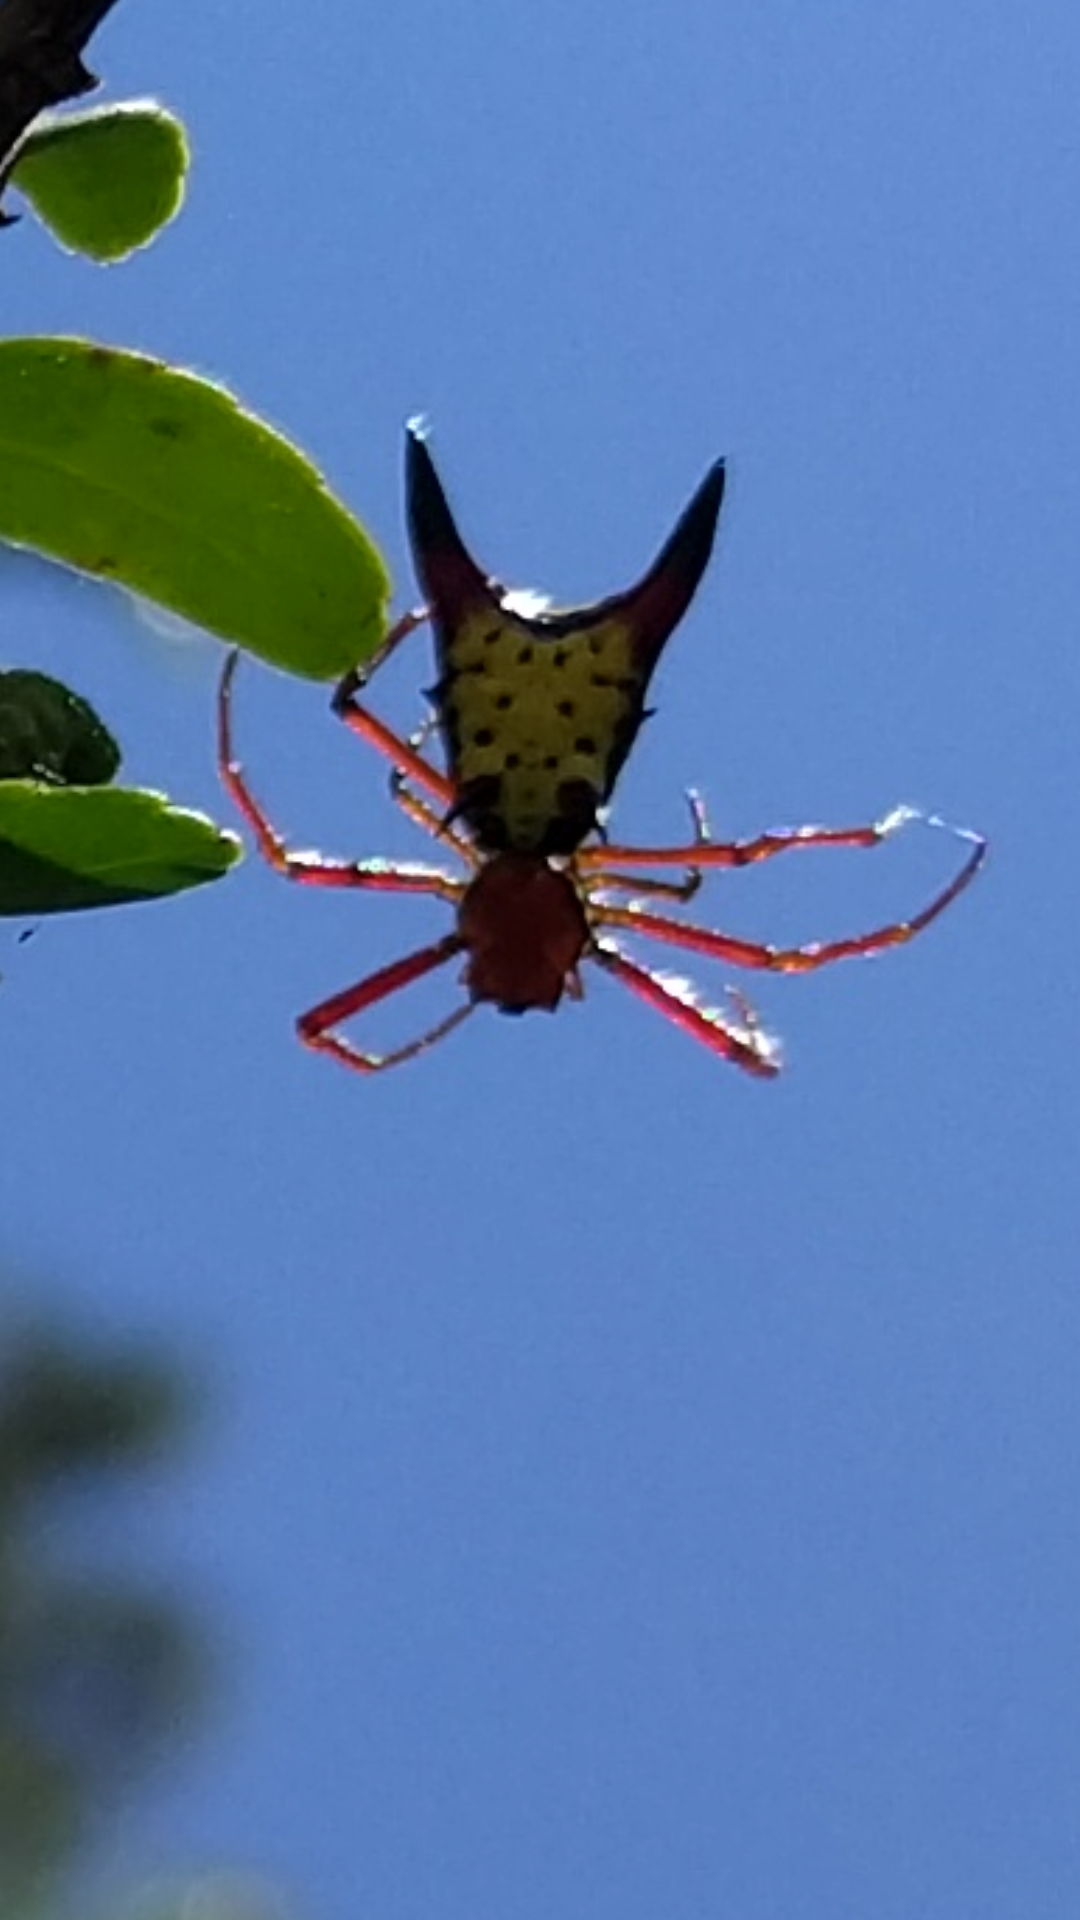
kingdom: Animalia
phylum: Arthropoda
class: Arachnida
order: Araneae
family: Araneidae
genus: Micrathena
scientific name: Micrathena sagittata
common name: Orb weavers
